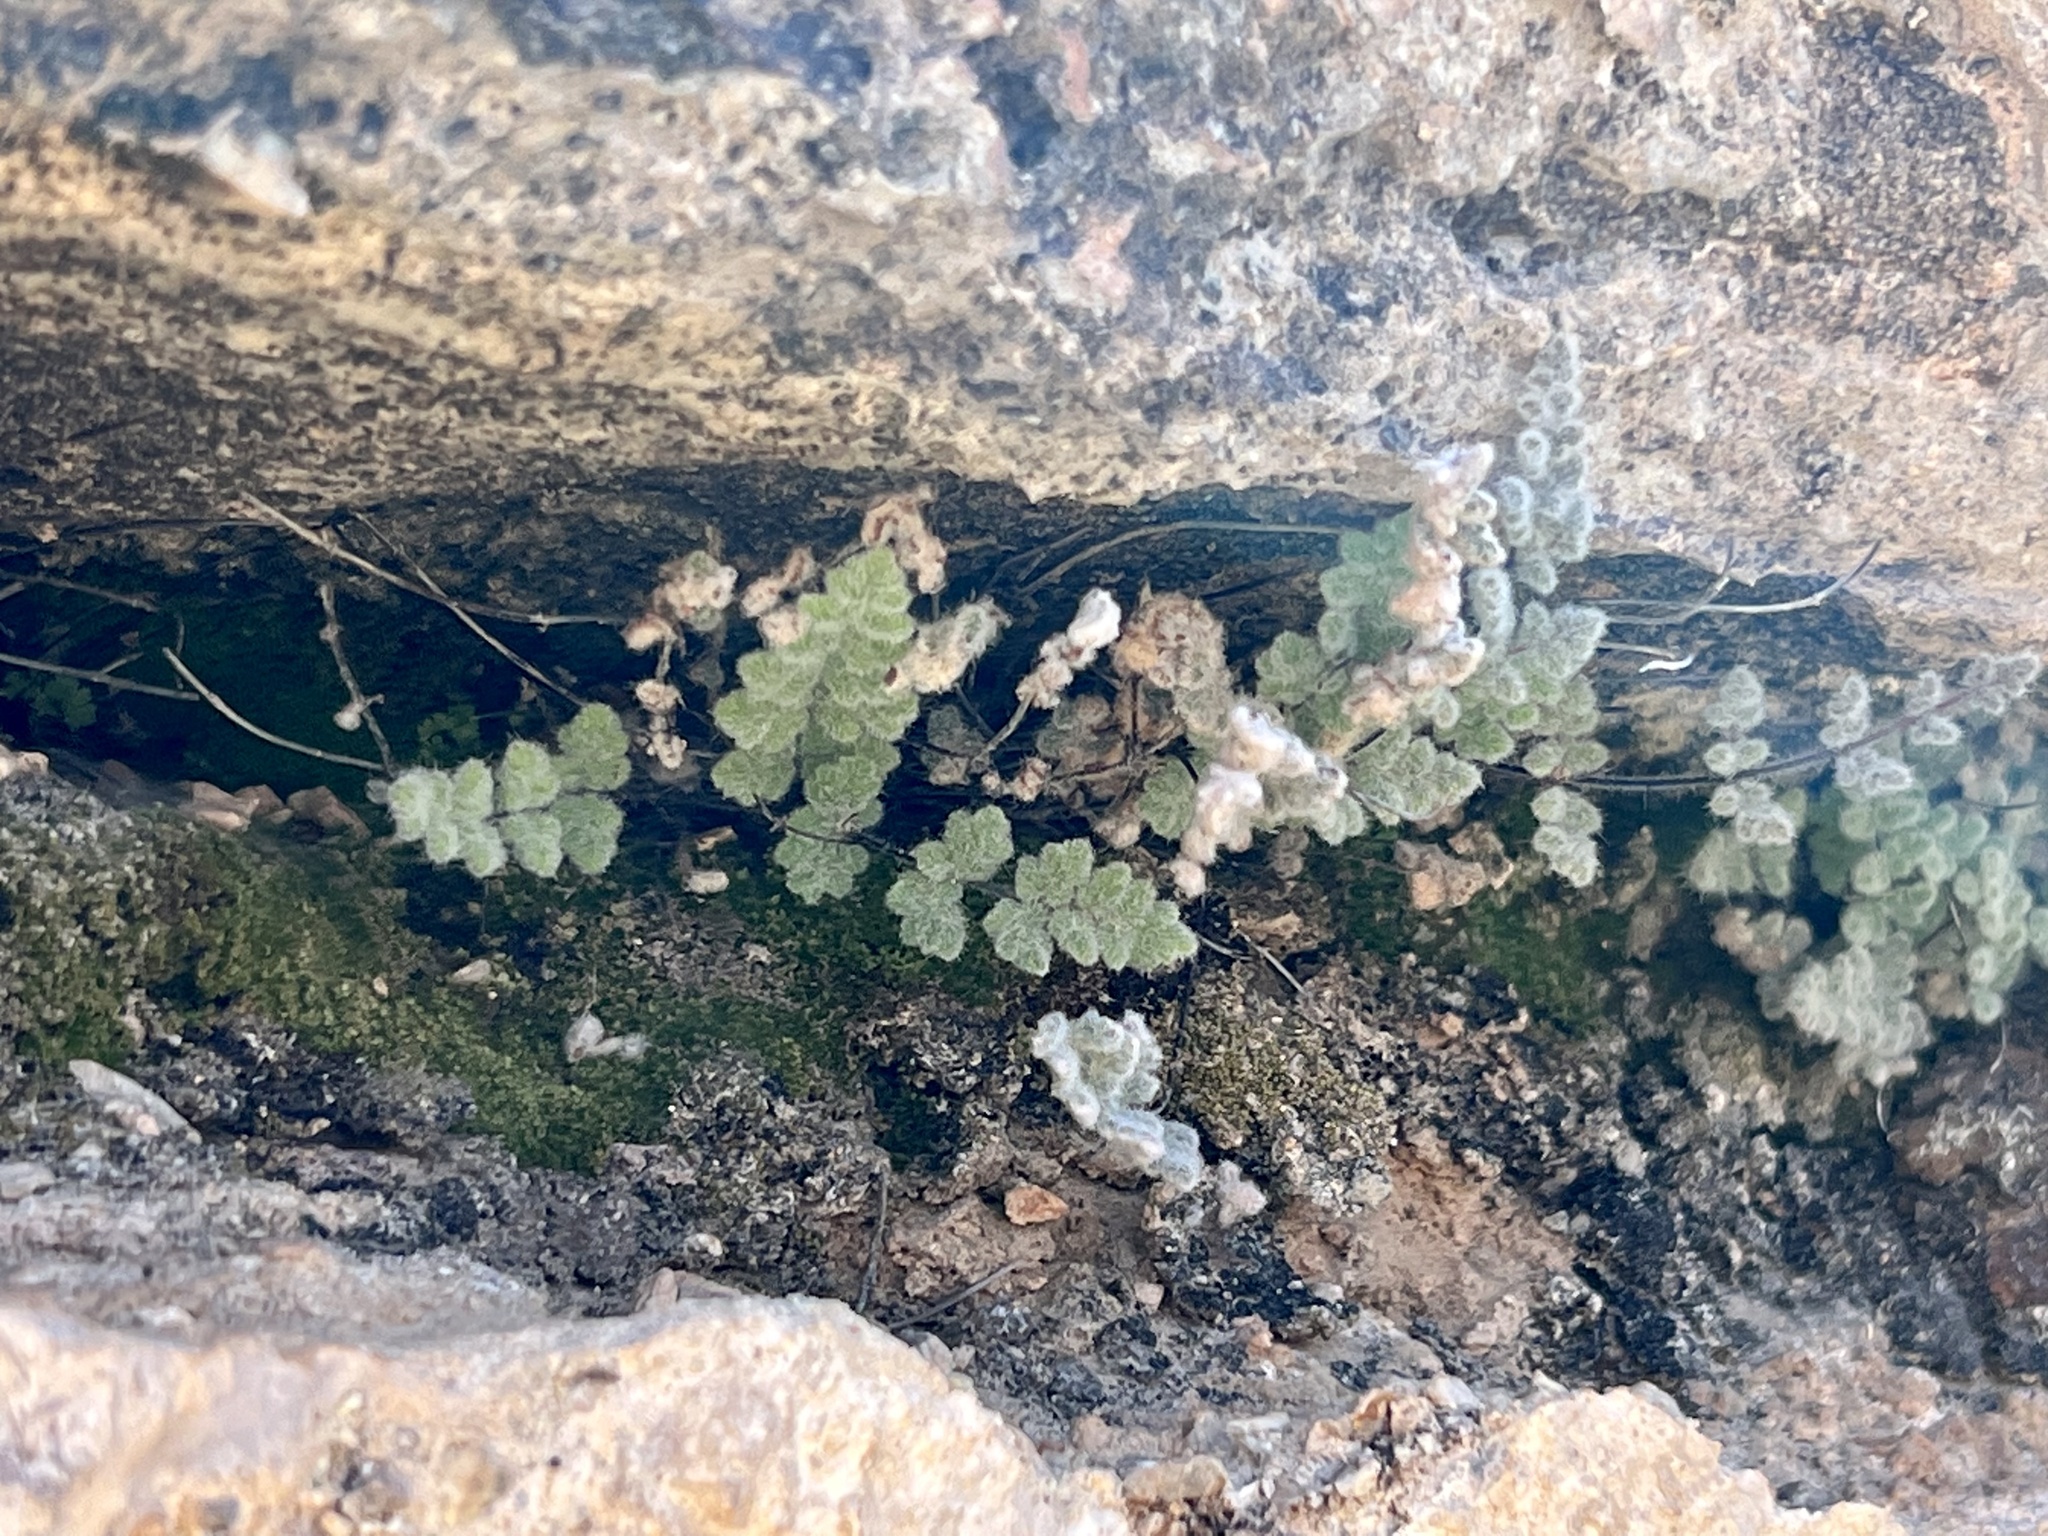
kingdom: Plantae
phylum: Tracheophyta
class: Polypodiopsida
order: Polypodiales
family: Pteridaceae
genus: Myriopteris
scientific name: Myriopteris parryi
